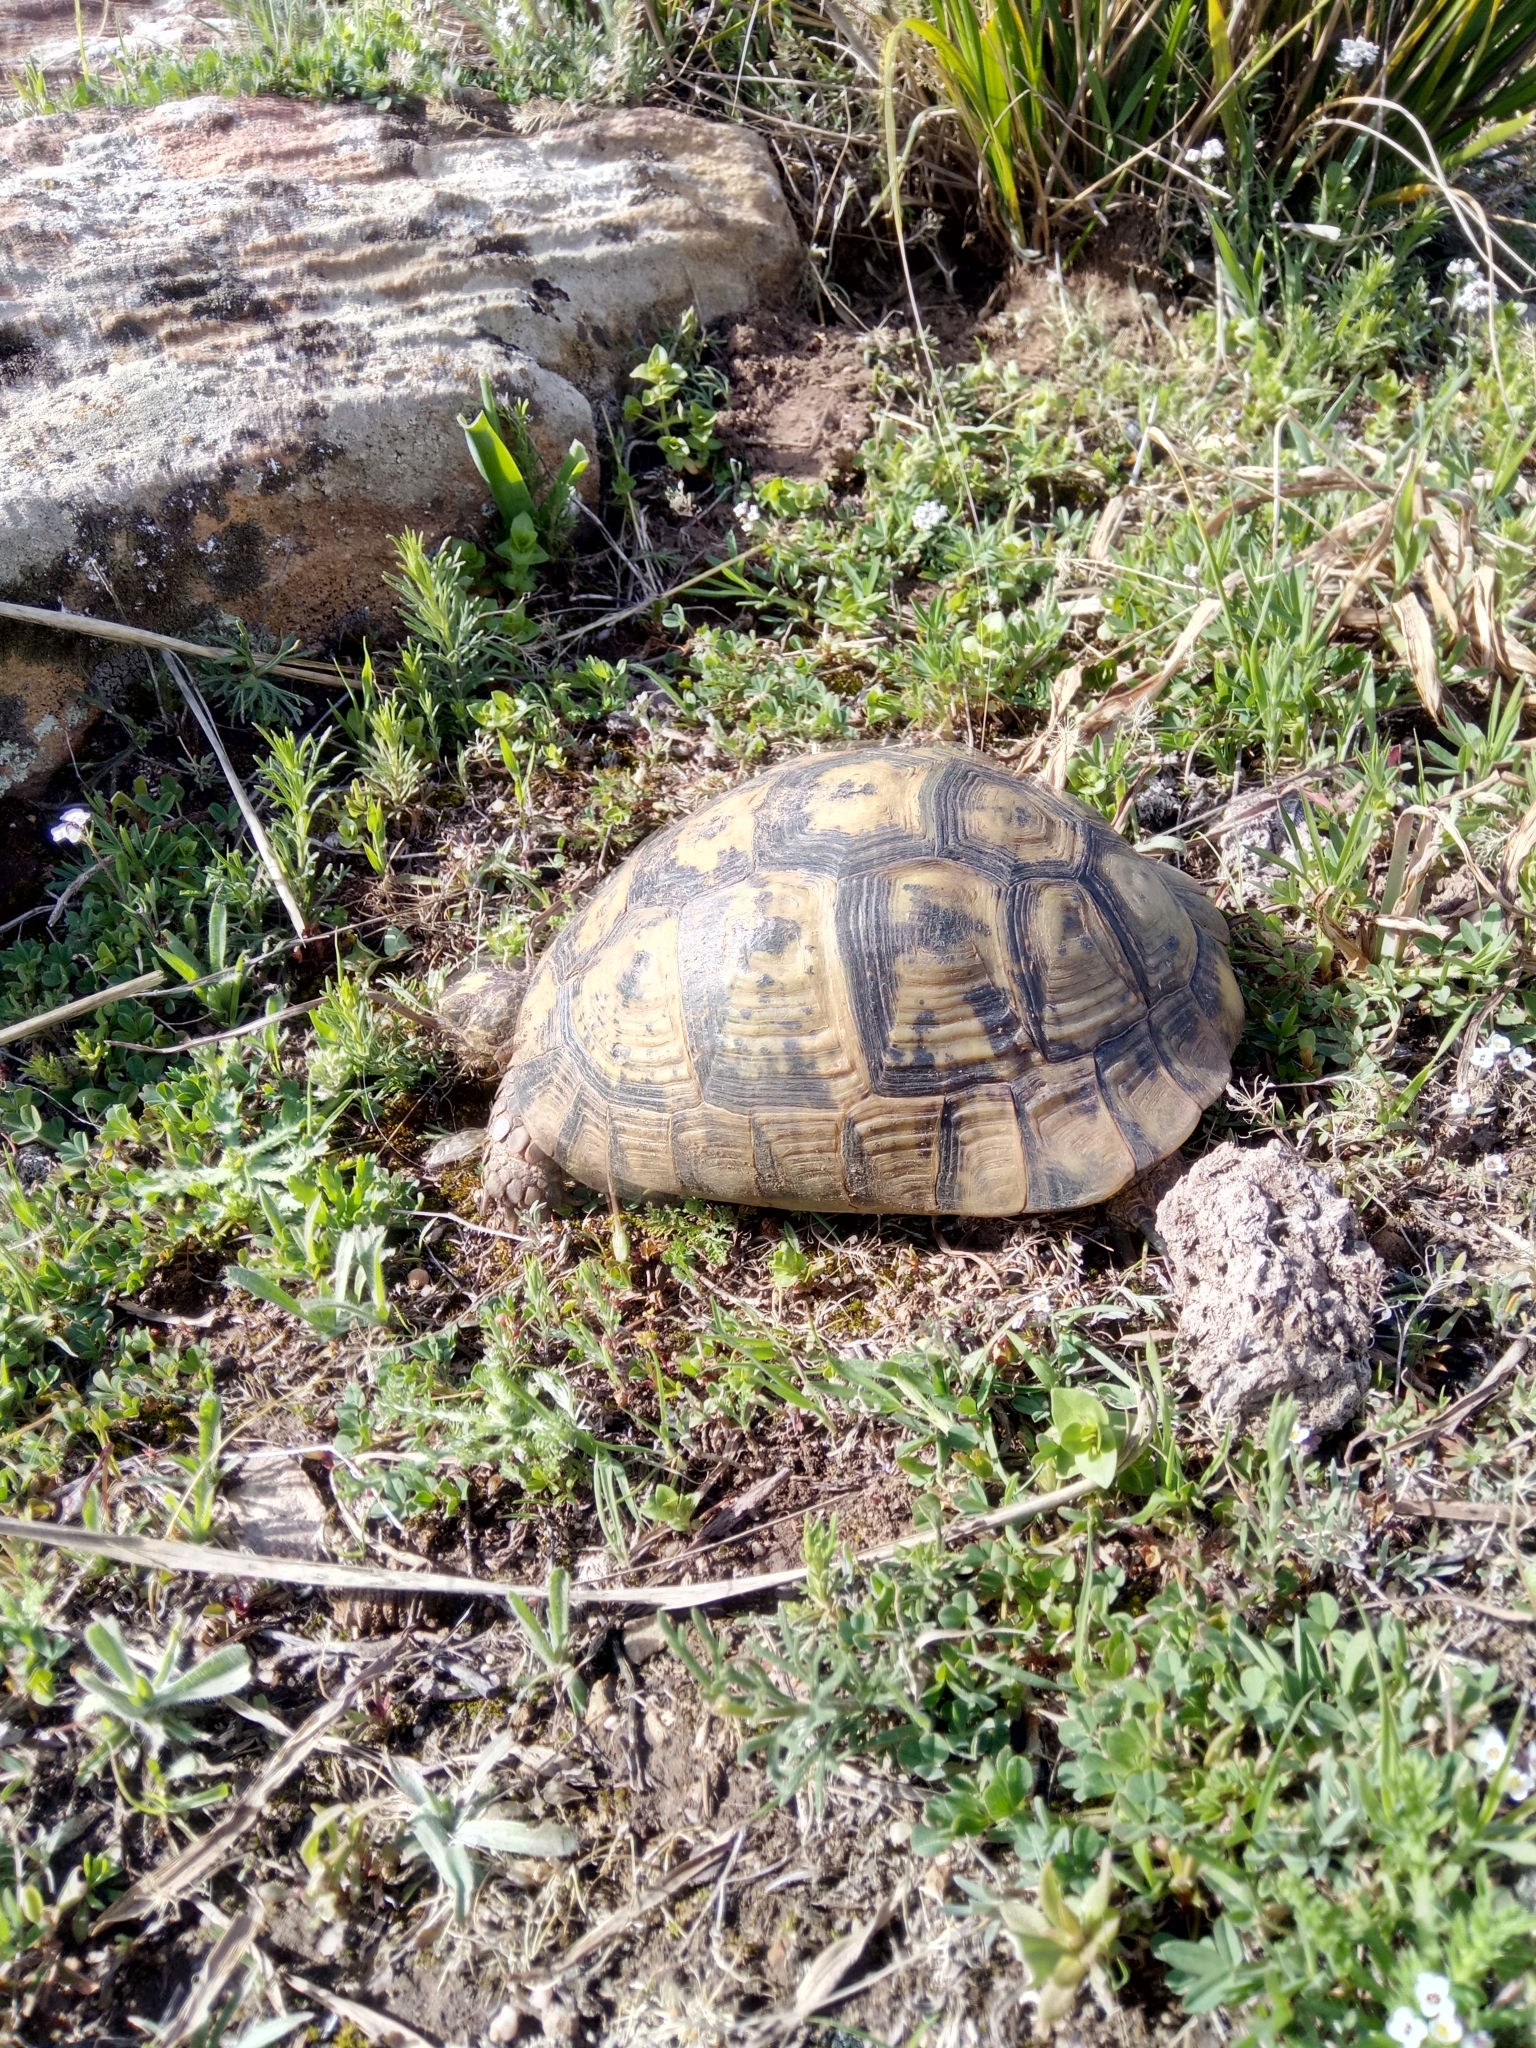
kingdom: Animalia
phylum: Chordata
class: Testudines
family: Testudinidae
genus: Testudo
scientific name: Testudo graeca
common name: Common tortoise
